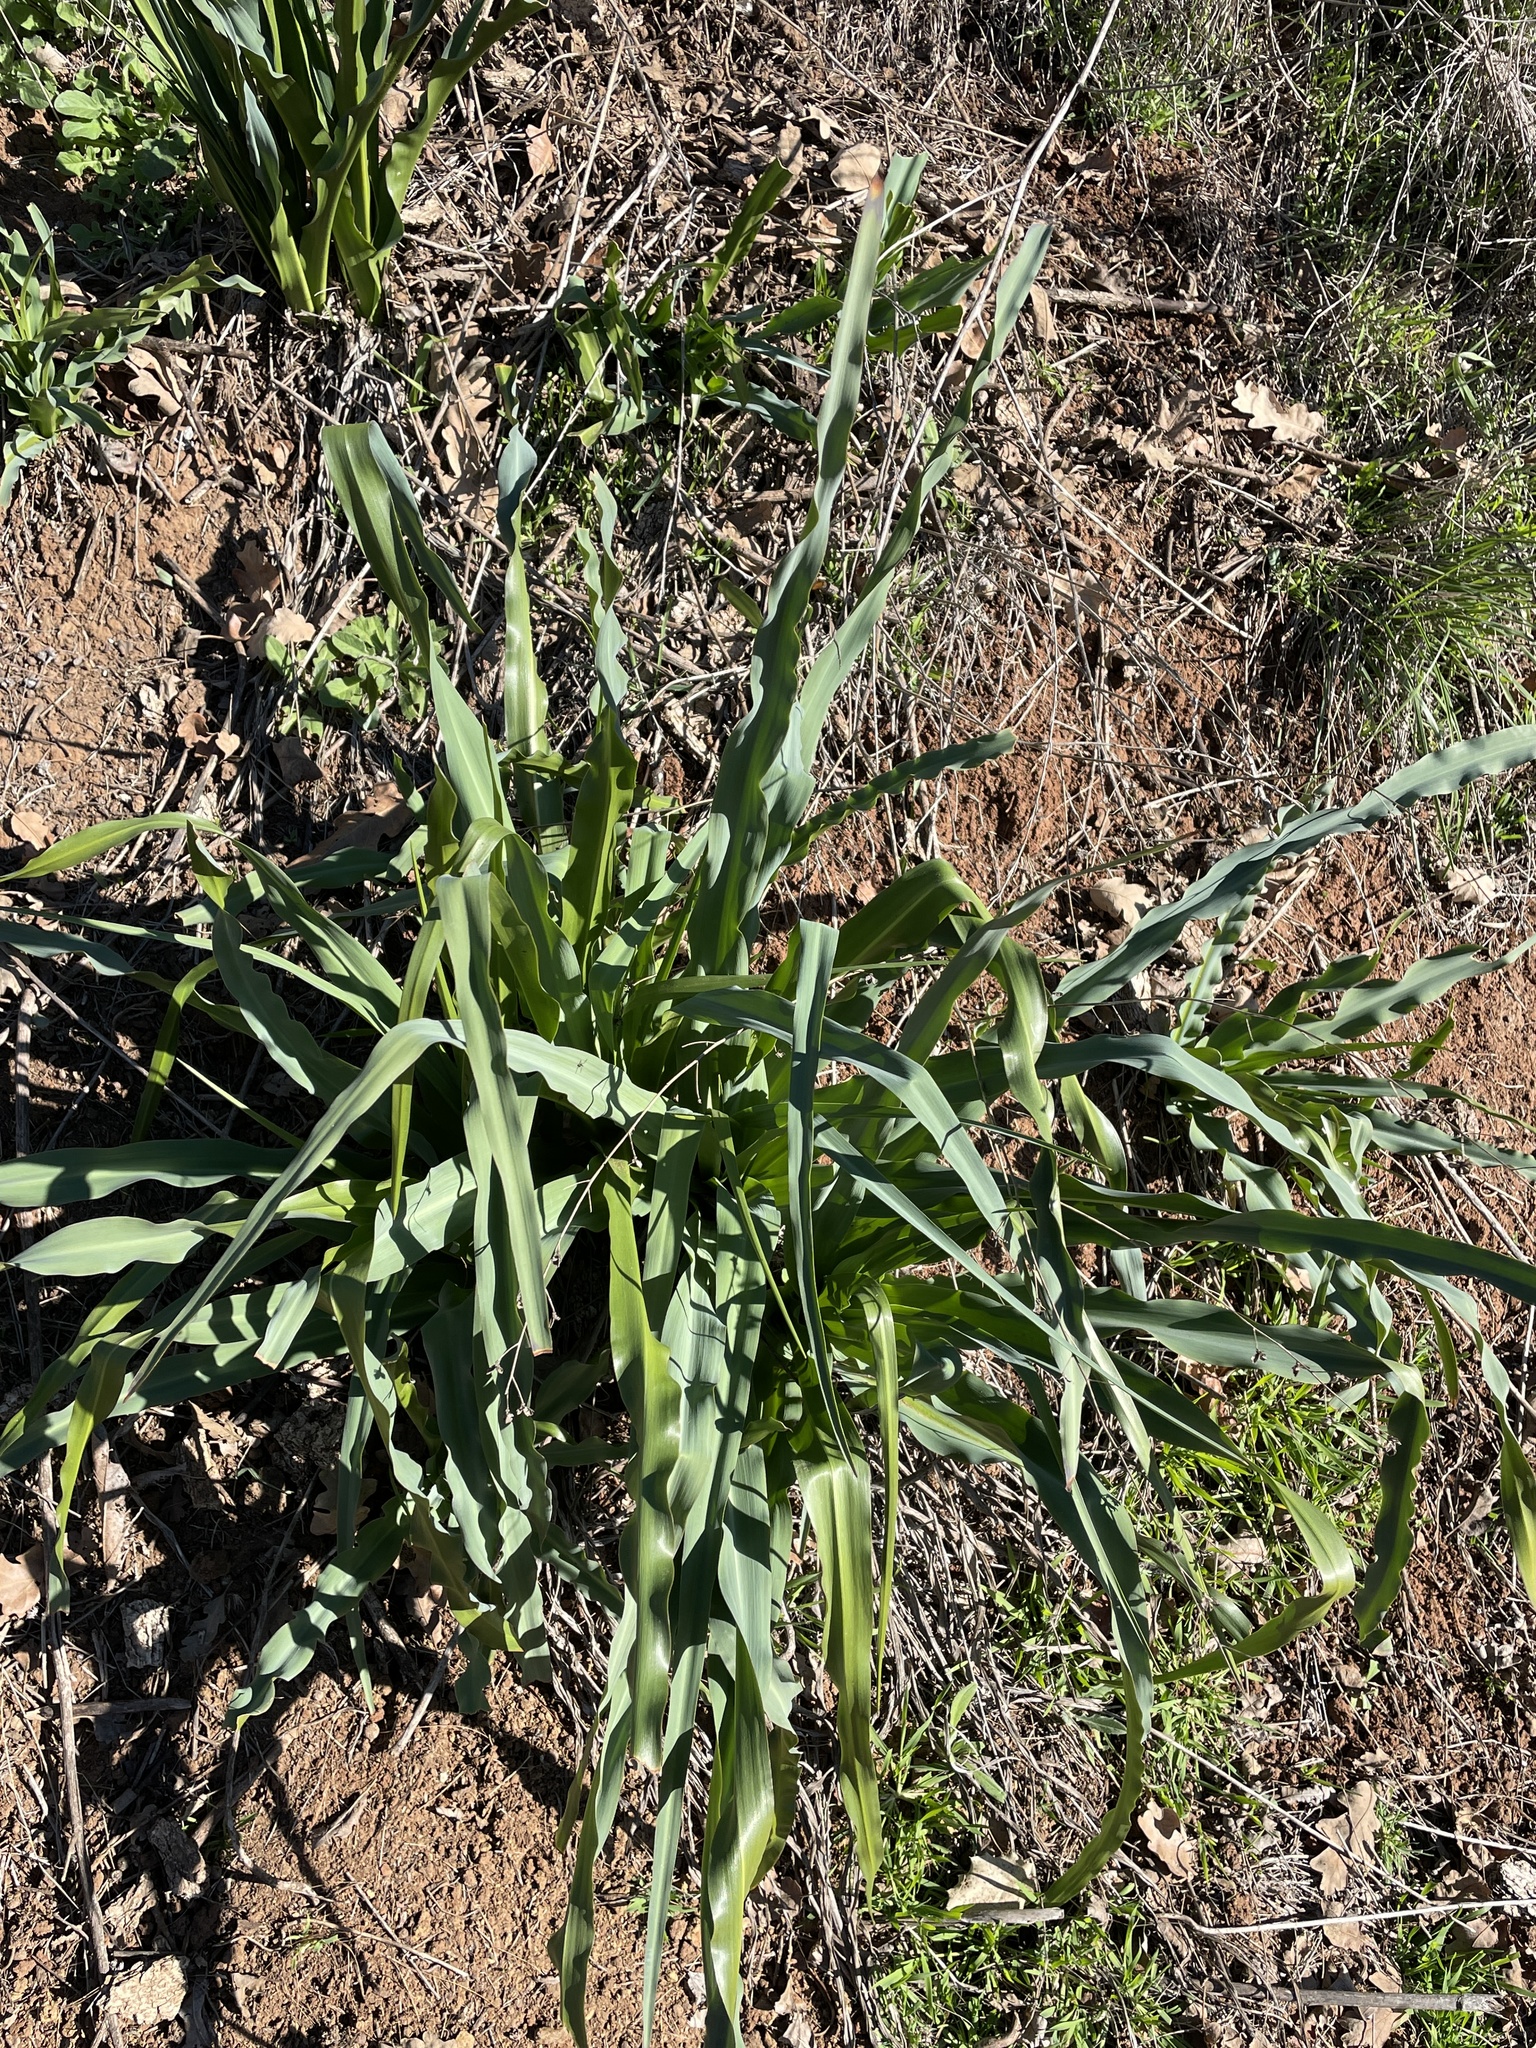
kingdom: Plantae
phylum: Tracheophyta
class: Liliopsida
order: Asparagales
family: Asparagaceae
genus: Chlorogalum
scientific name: Chlorogalum pomeridianum
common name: Amole
